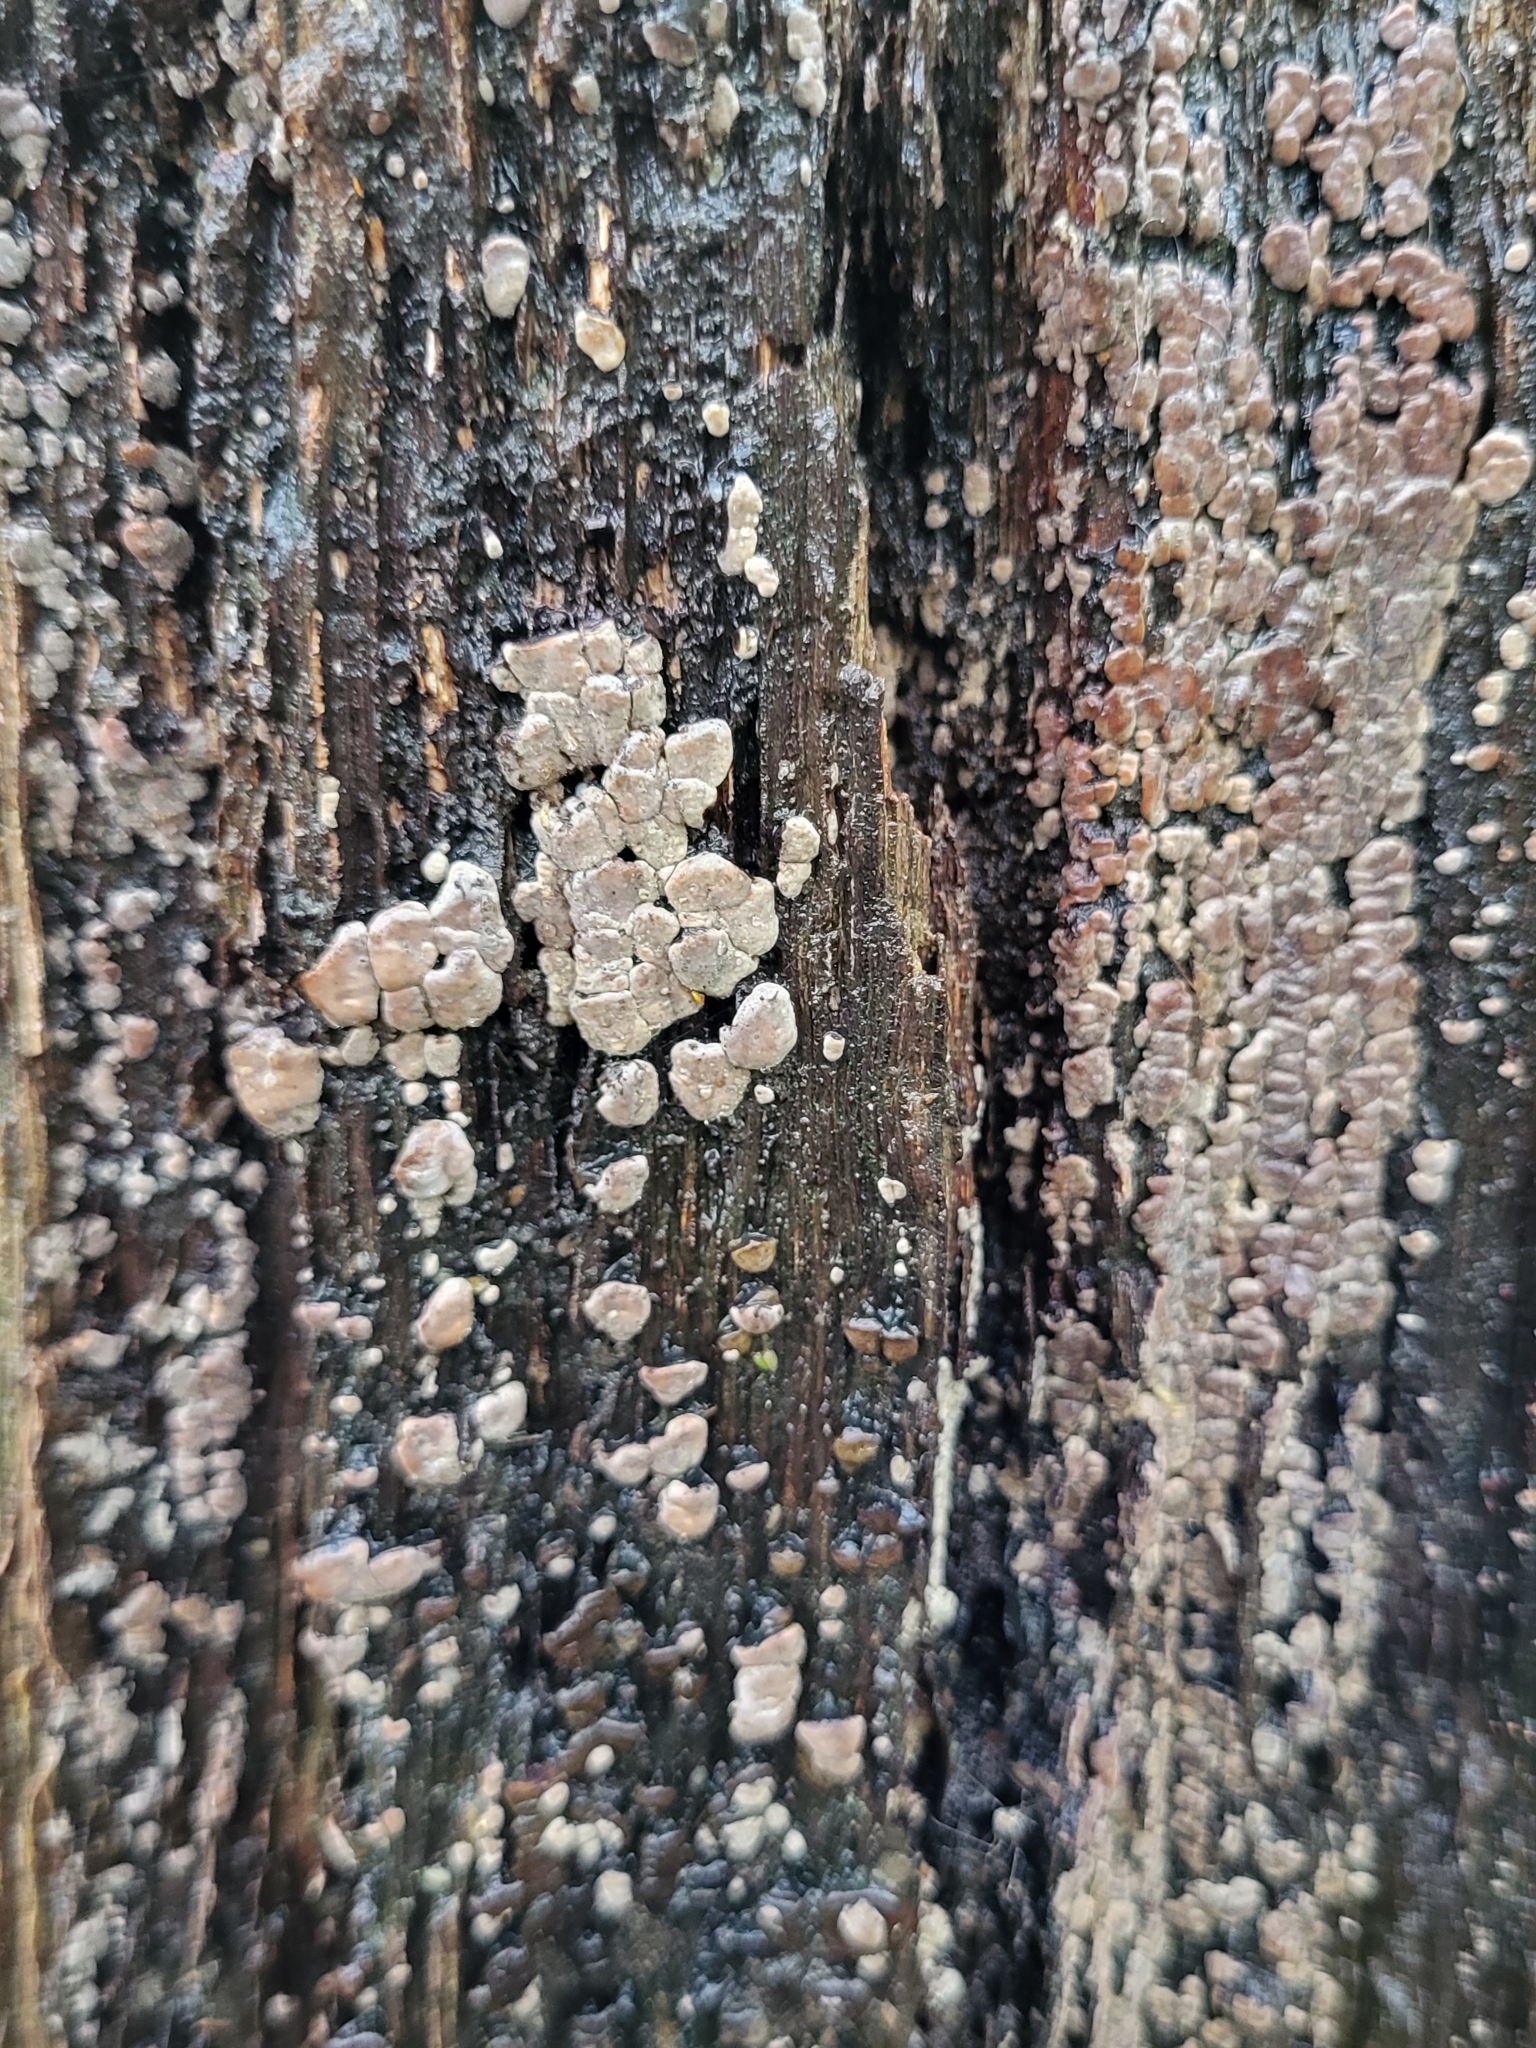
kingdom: Fungi
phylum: Basidiomycota
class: Agaricomycetes
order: Russulales
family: Stereaceae
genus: Xylobolus
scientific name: Xylobolus frustulatus
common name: Ceramic parchment
